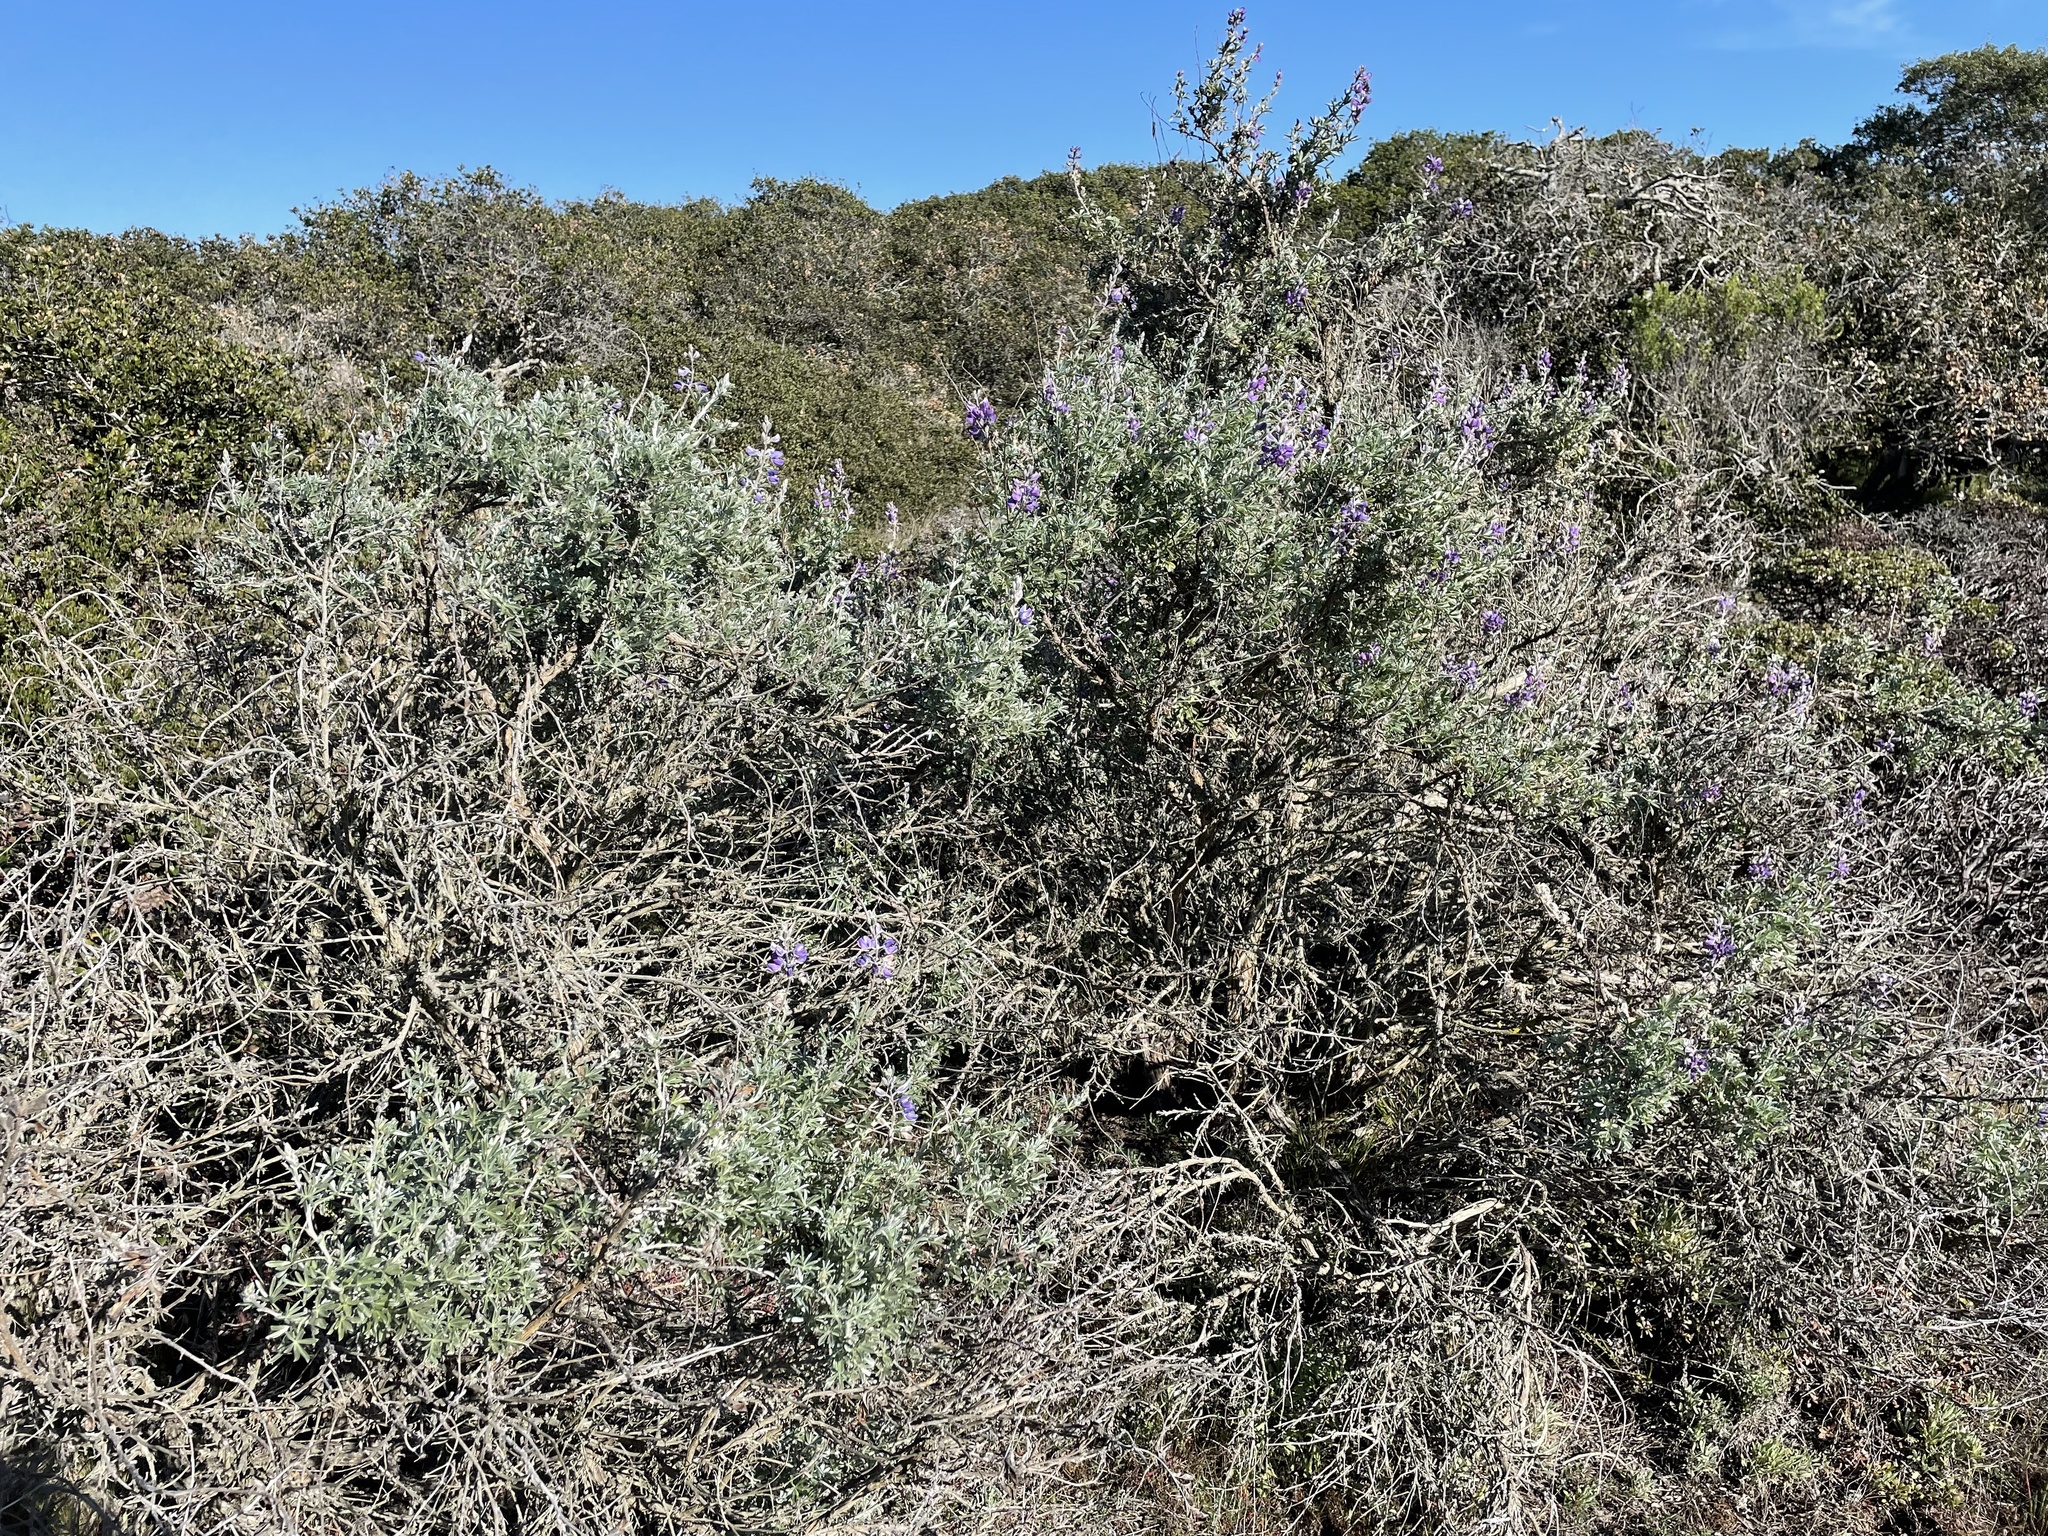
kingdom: Plantae
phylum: Tracheophyta
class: Magnoliopsida
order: Fabales
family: Fabaceae
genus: Lupinus
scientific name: Lupinus chamissonis
